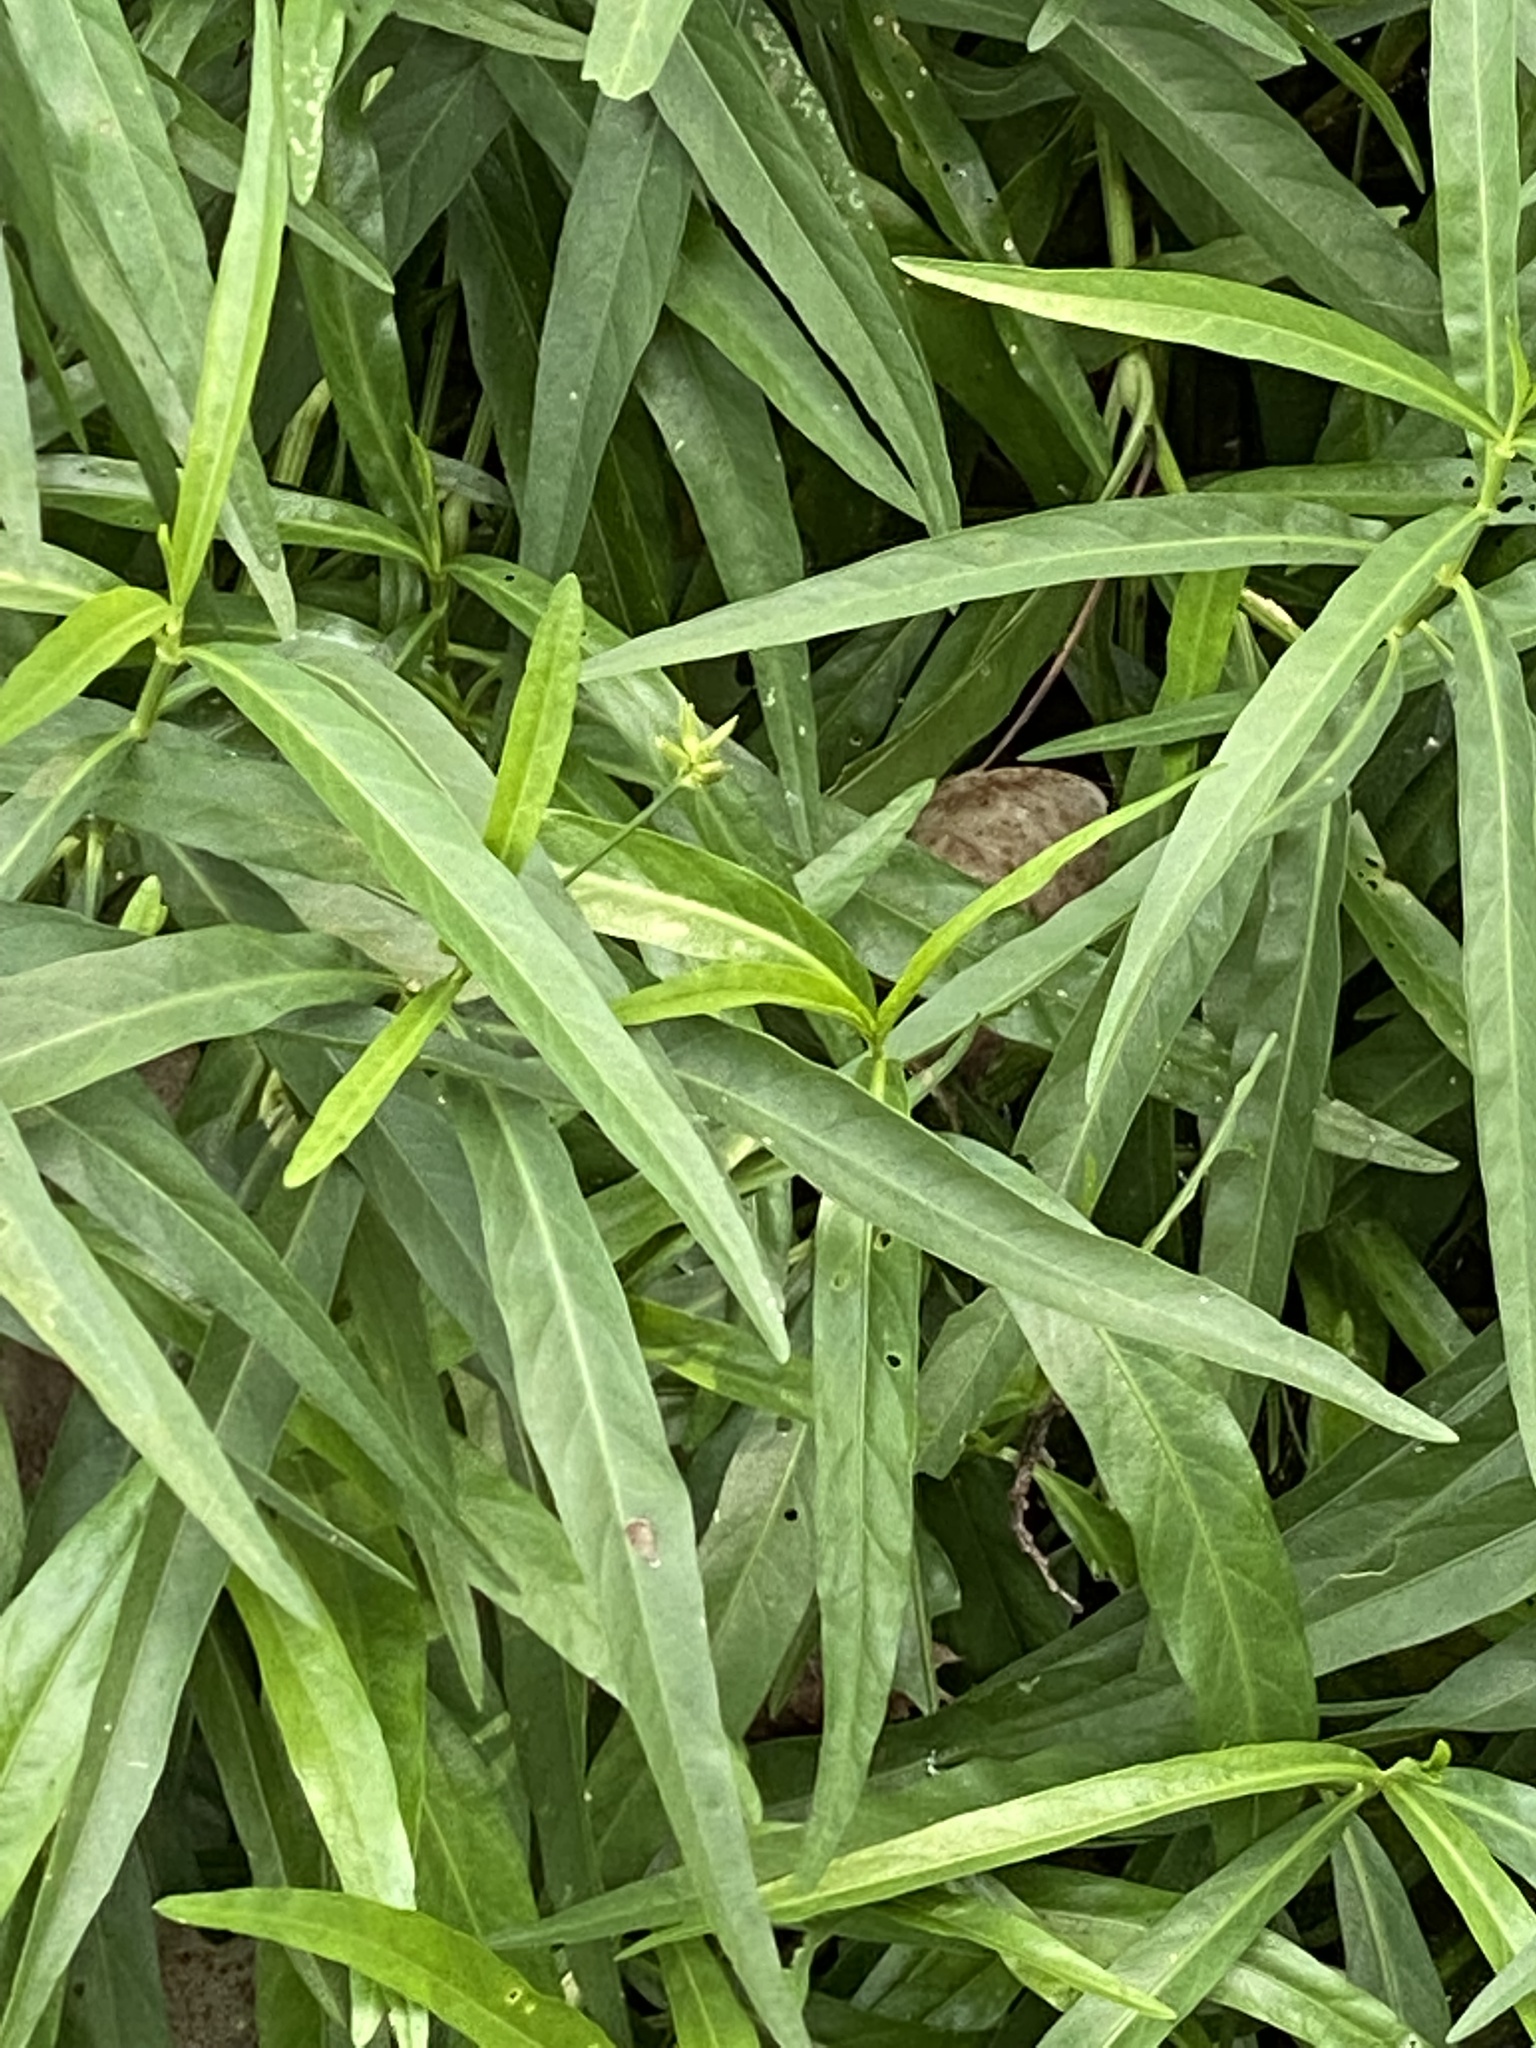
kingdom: Plantae
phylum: Tracheophyta
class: Magnoliopsida
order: Lamiales
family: Acanthaceae
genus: Dianthera
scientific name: Dianthera americana
